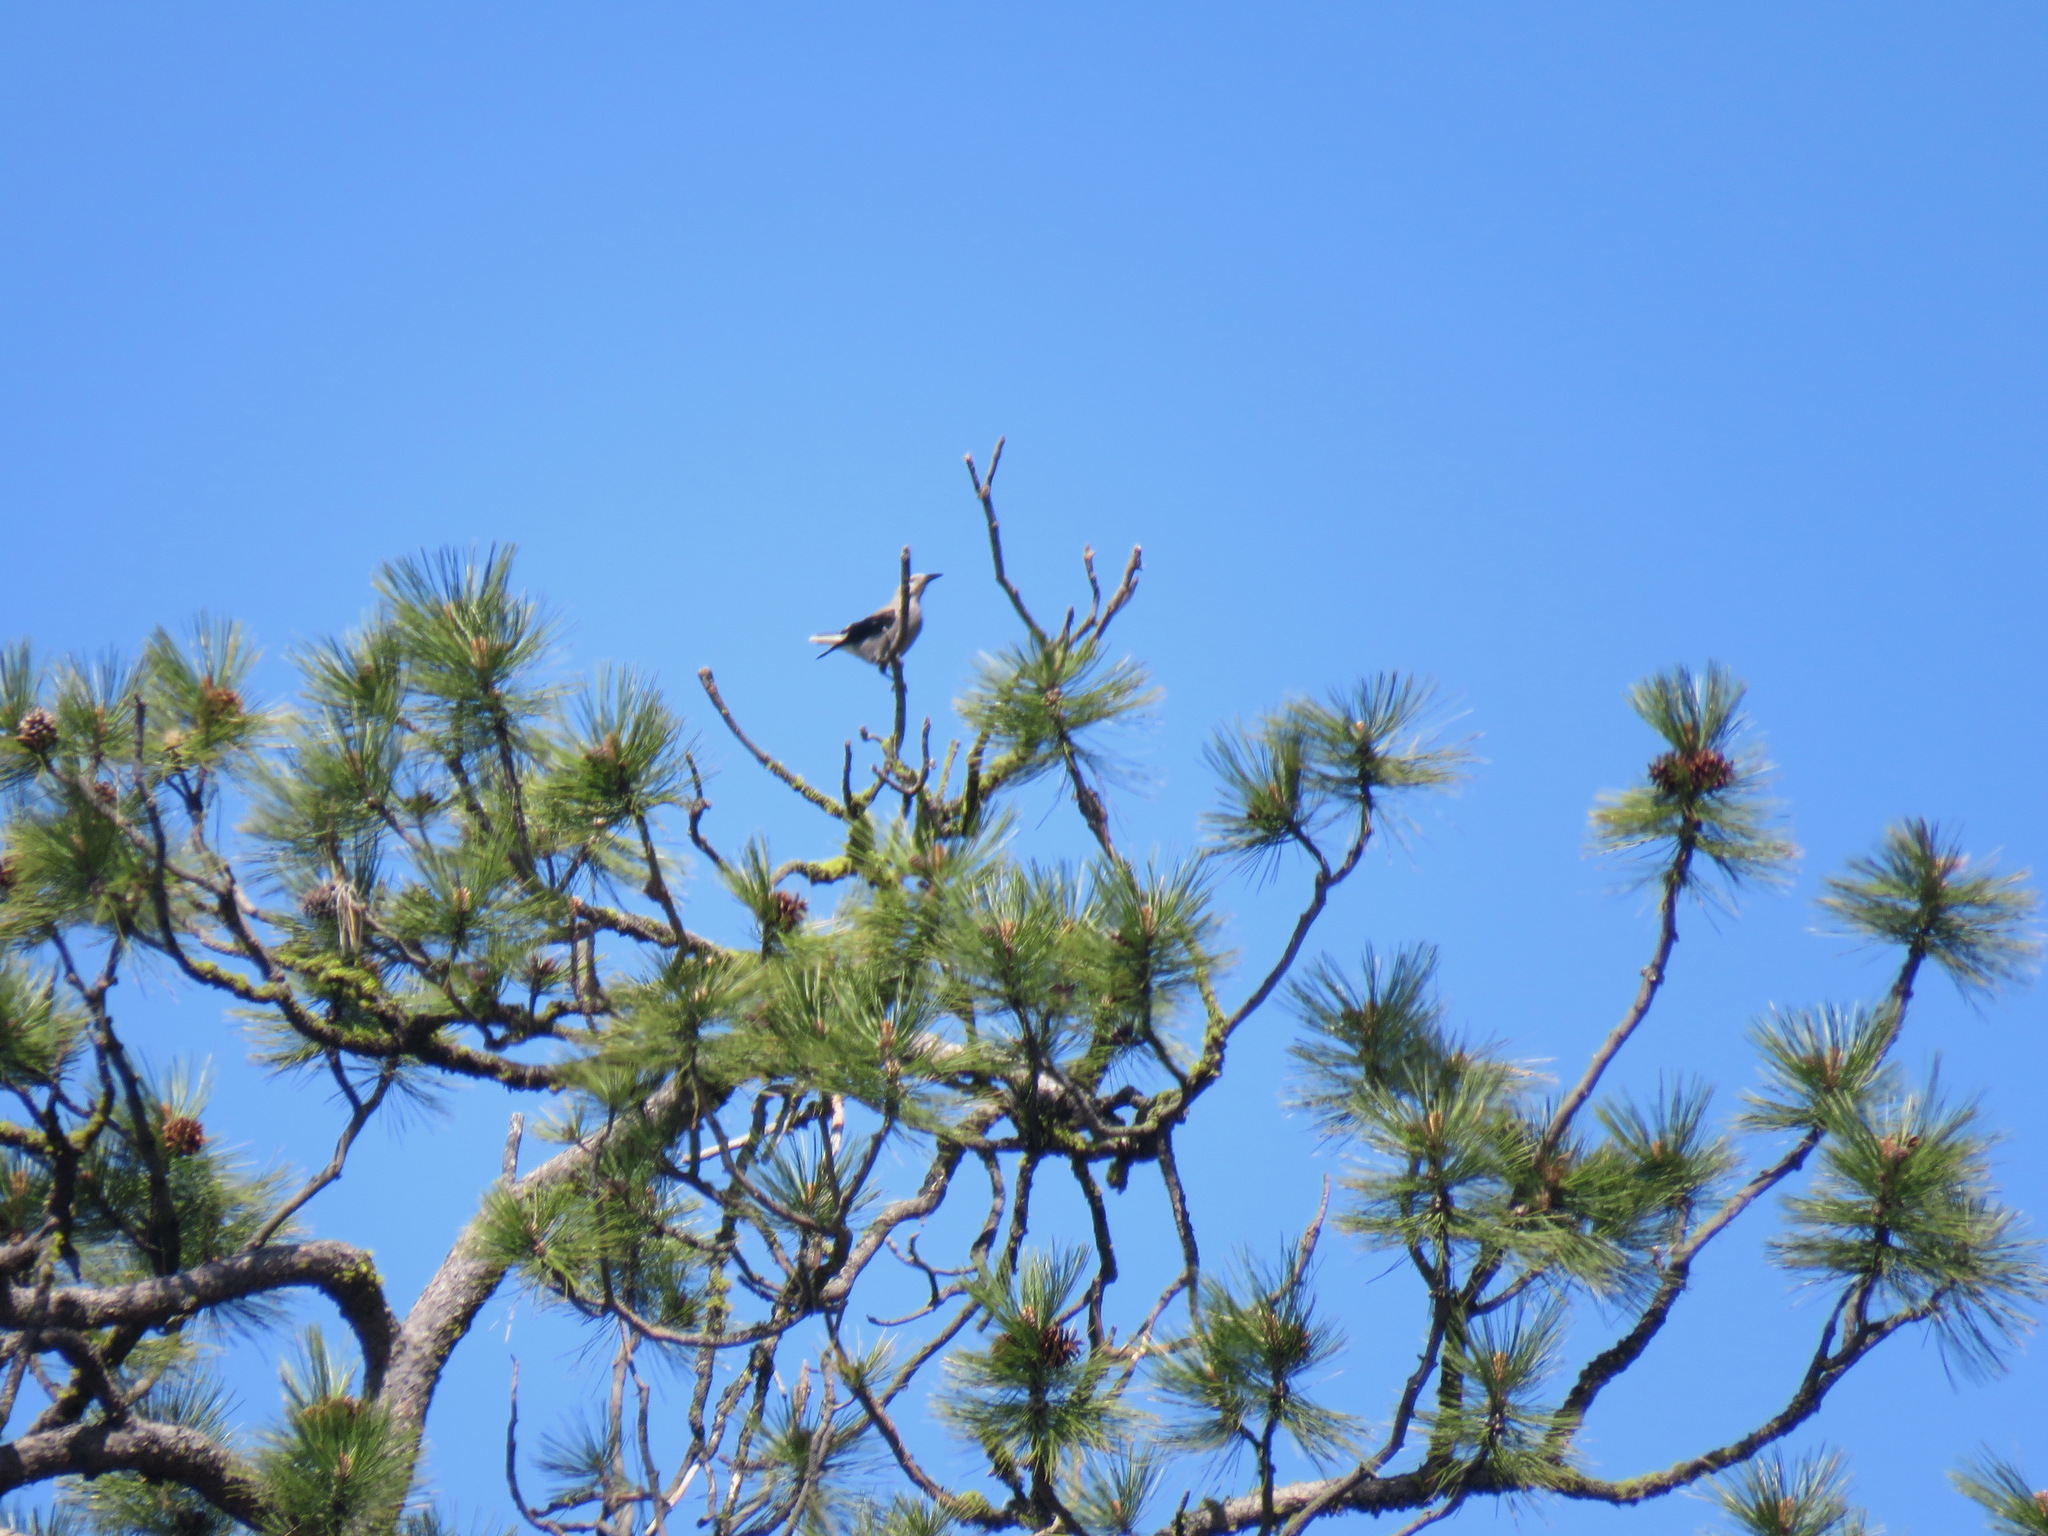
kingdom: Animalia
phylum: Chordata
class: Aves
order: Passeriformes
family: Corvidae
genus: Nucifraga
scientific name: Nucifraga columbiana
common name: Clark's nutcracker
